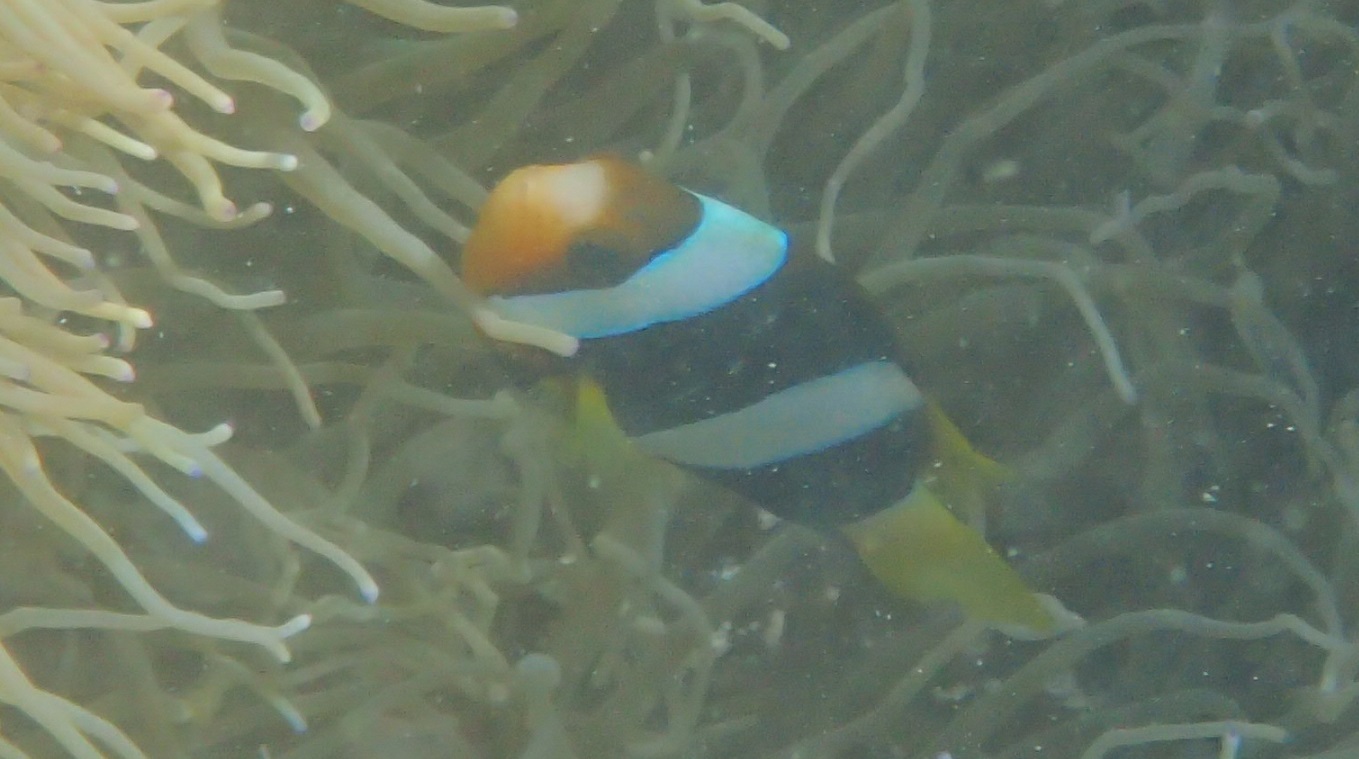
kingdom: Animalia
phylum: Chordata
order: Perciformes
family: Pomacentridae
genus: Amphiprion
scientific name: Amphiprion clarkii
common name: Clark's anemonefish
